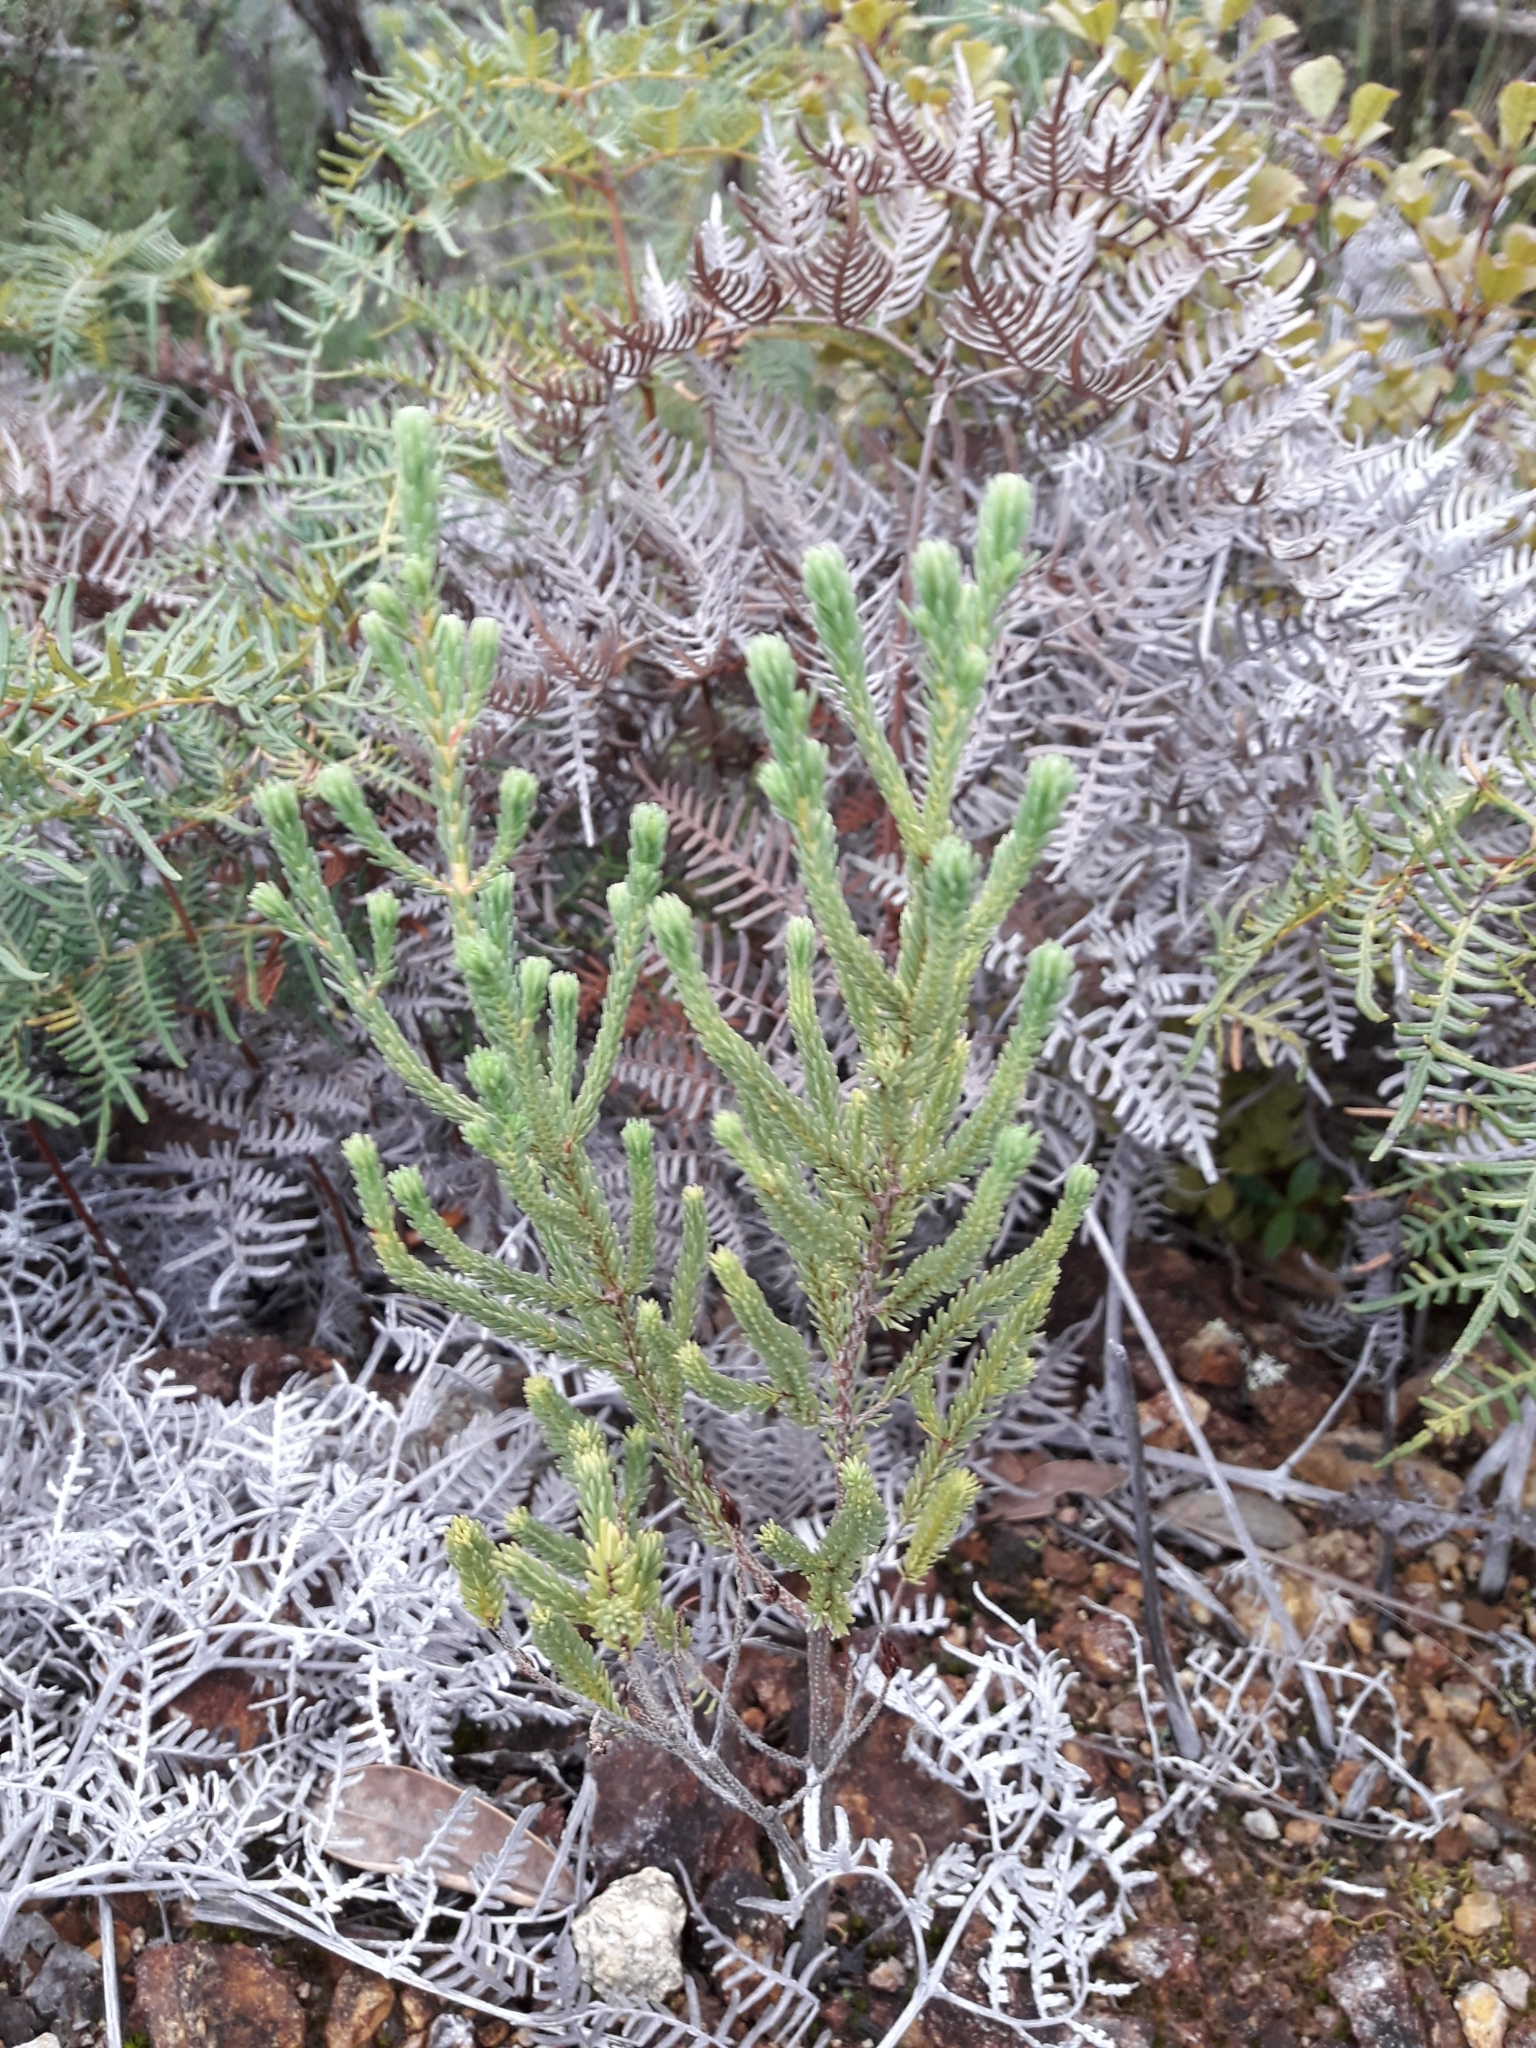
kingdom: Plantae
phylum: Tracheophyta
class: Magnoliopsida
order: Ericales
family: Ericaceae
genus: Erica
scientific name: Erica baccans
